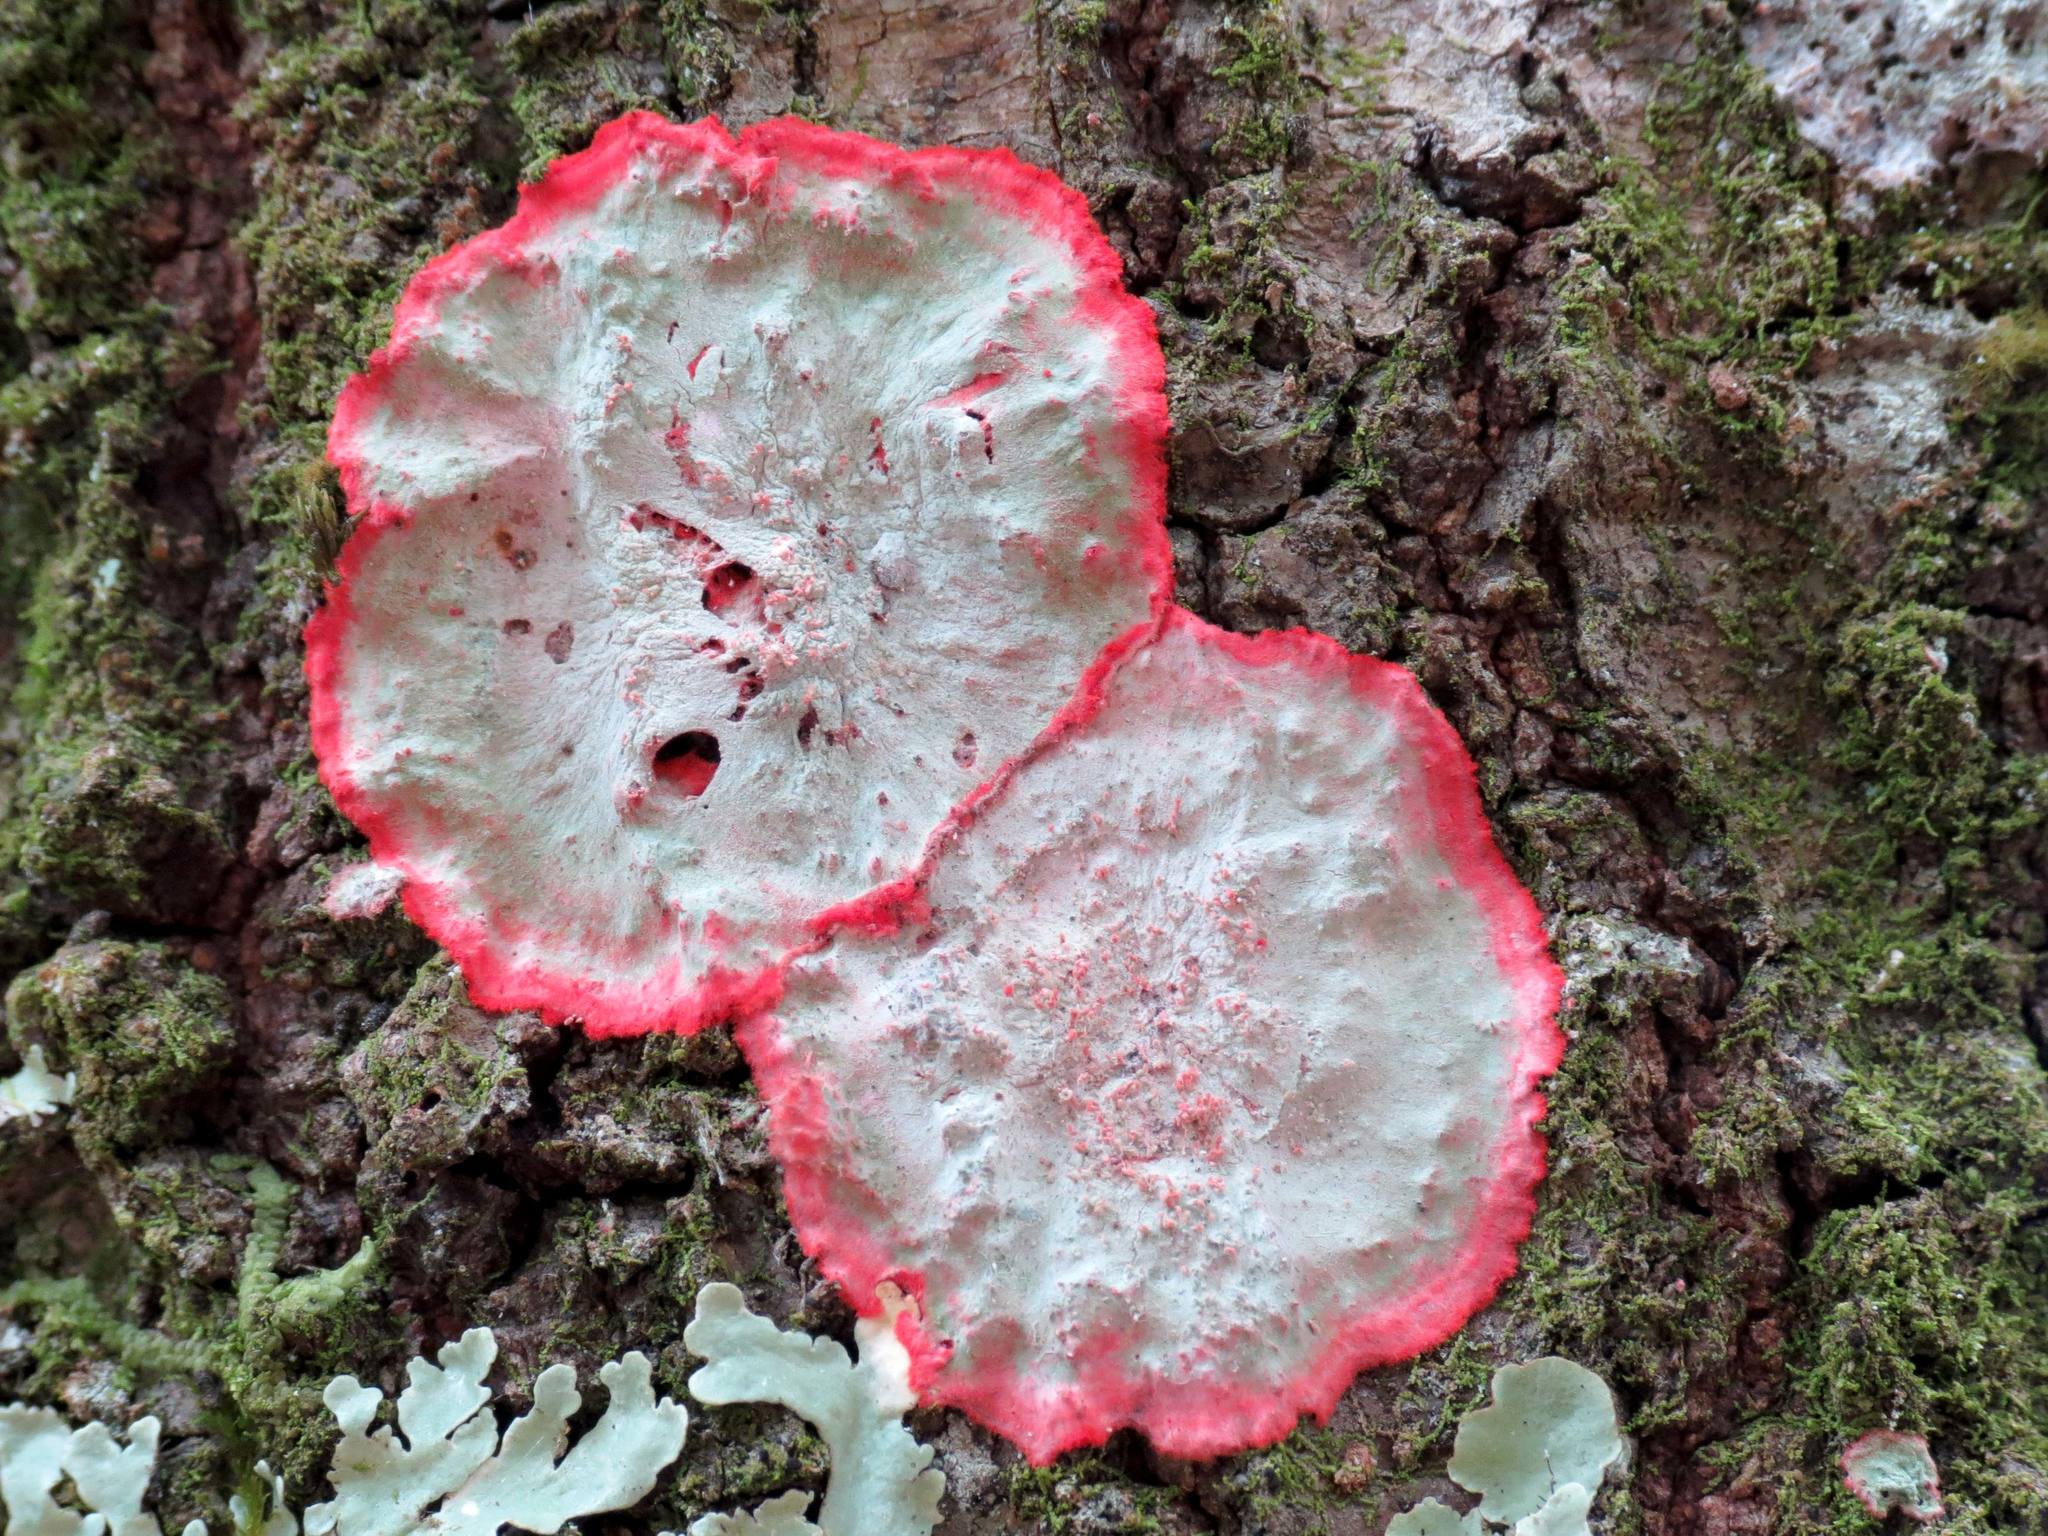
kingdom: Fungi
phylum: Ascomycota
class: Arthoniomycetes
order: Arthoniales
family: Arthoniaceae
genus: Herpothallon
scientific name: Herpothallon rubrocinctum
